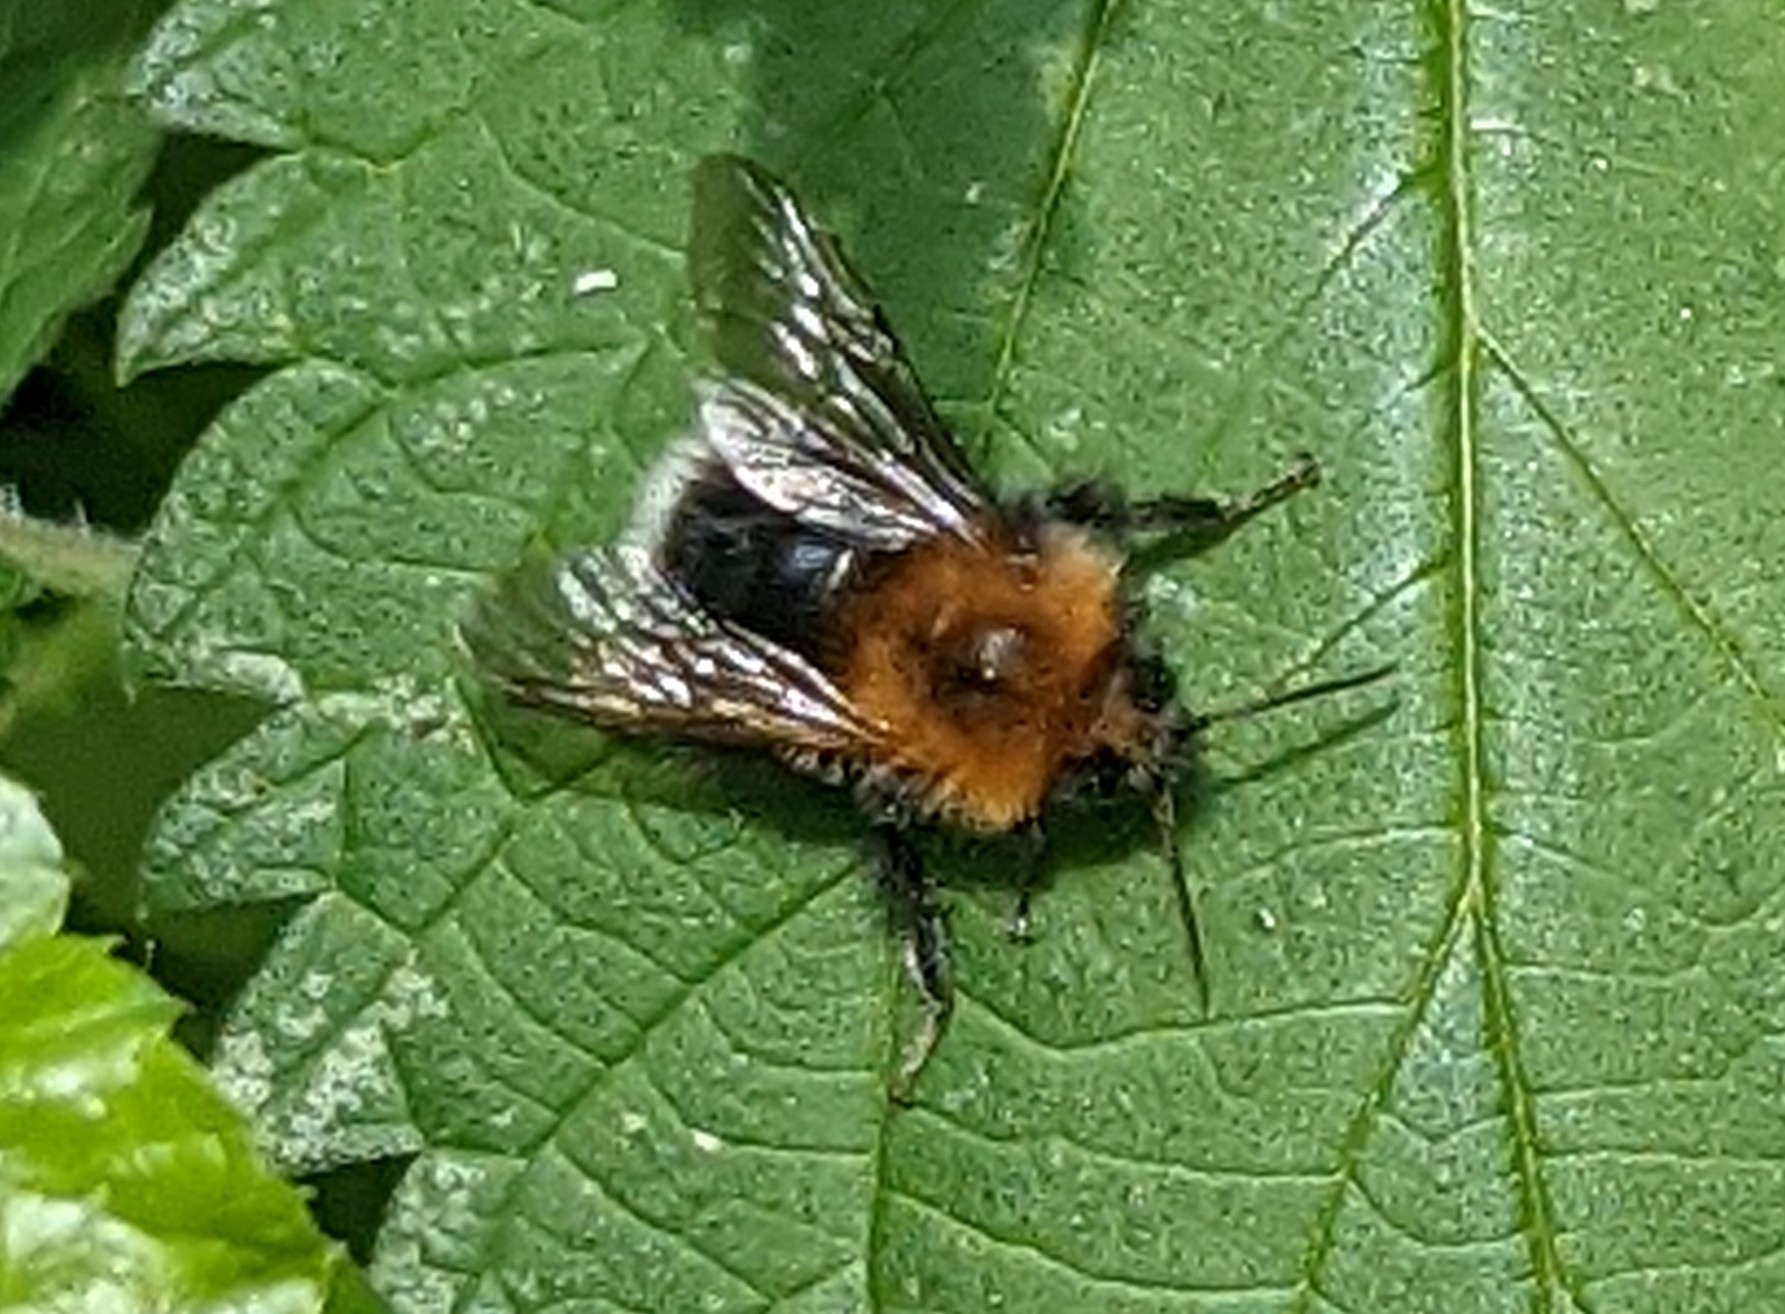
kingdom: Animalia
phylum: Arthropoda
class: Insecta
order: Hymenoptera
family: Apidae
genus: Bombus
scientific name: Bombus hypnorum
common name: New garden bumblebee
